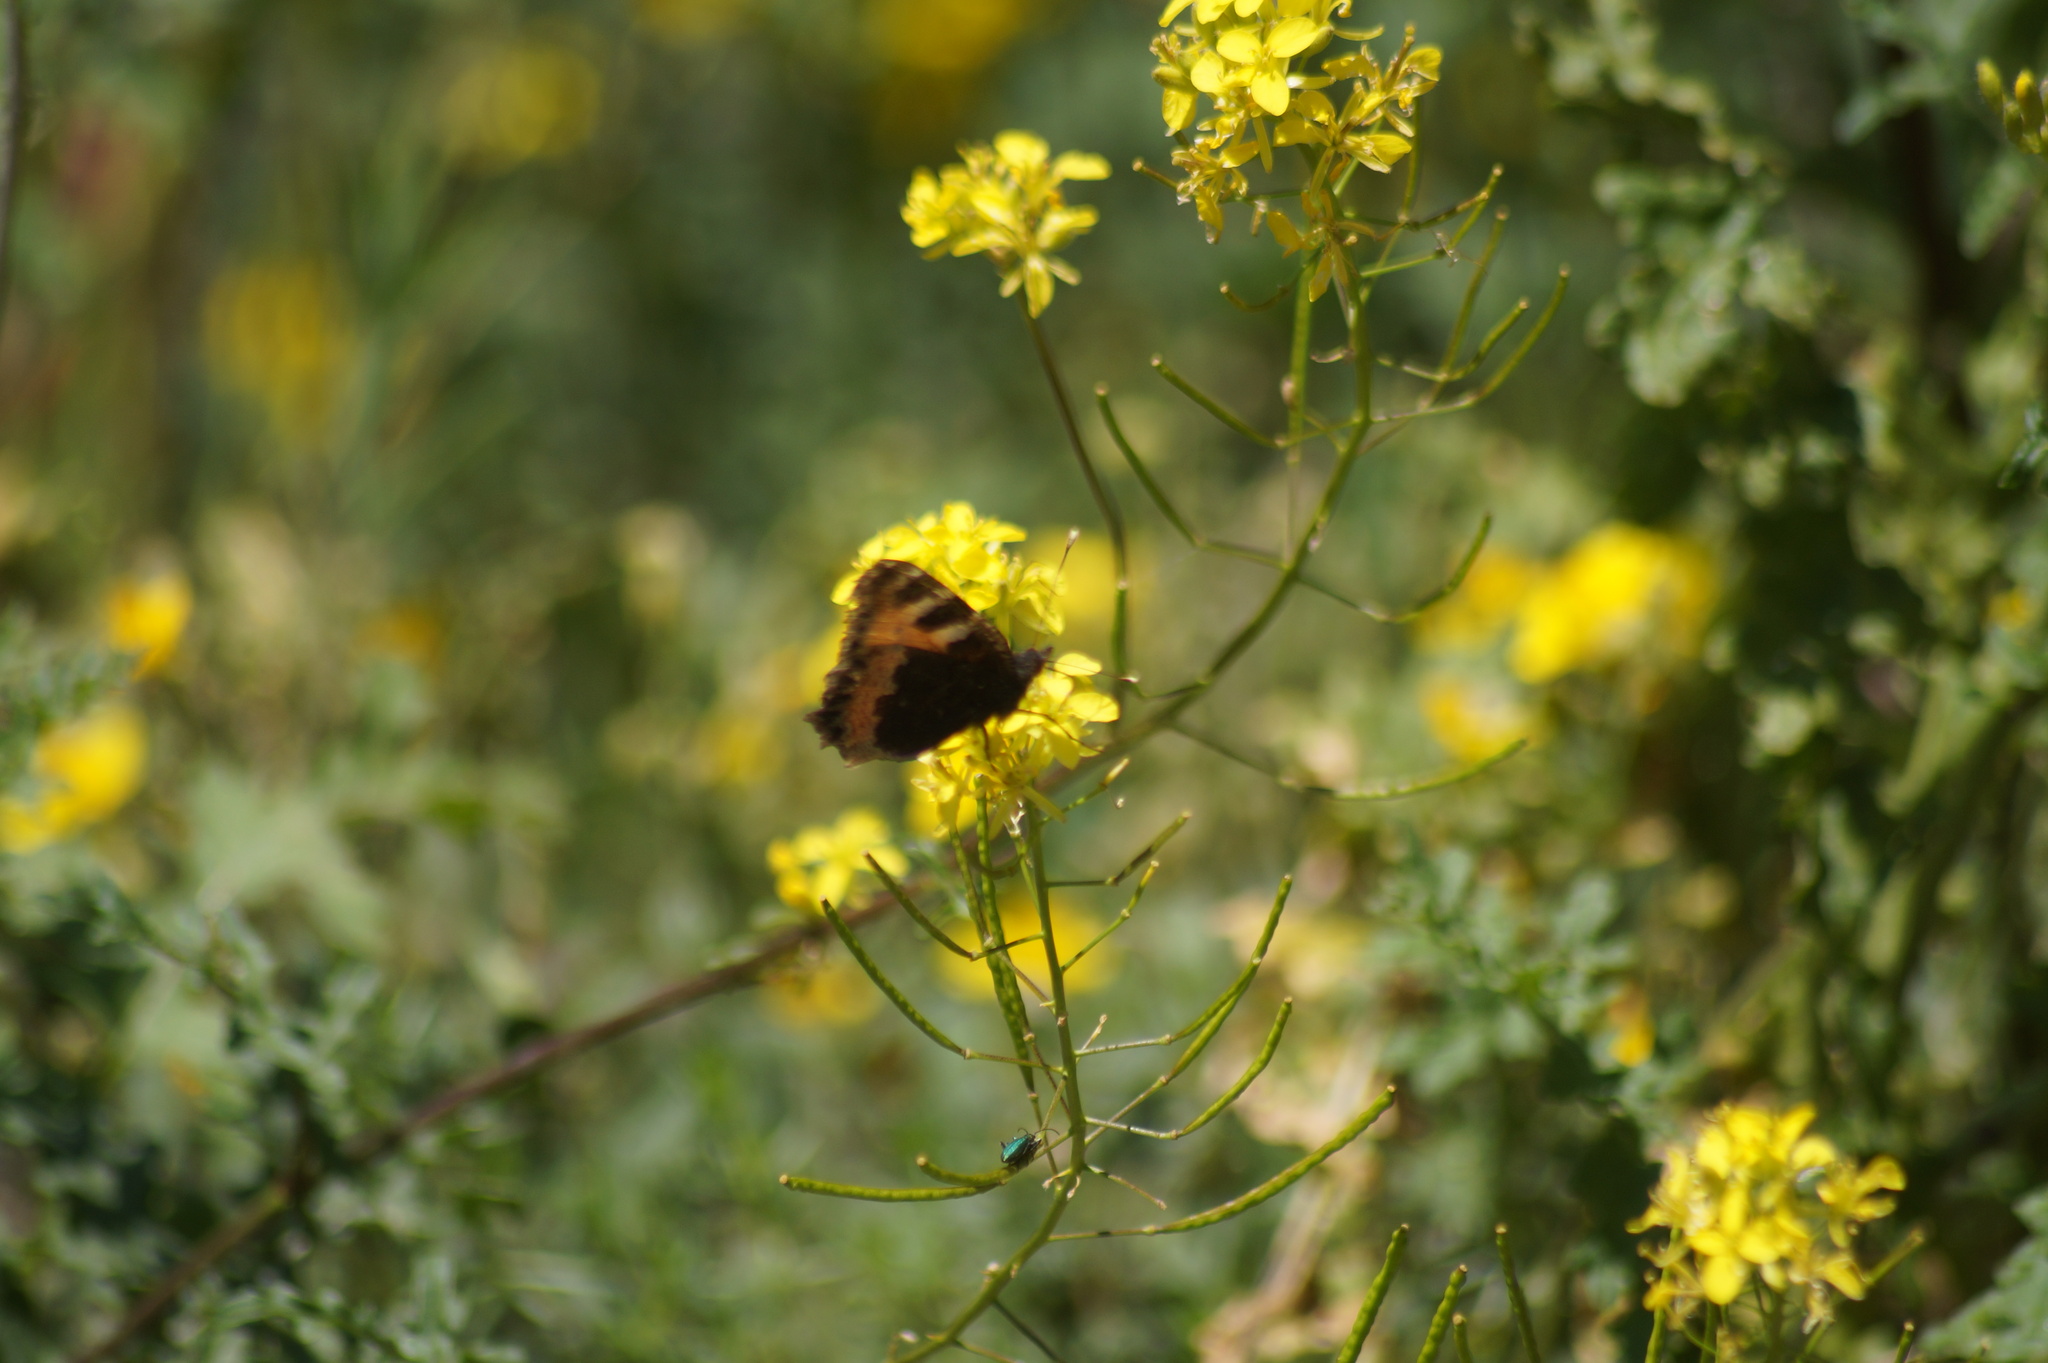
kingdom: Animalia
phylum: Arthropoda
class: Insecta
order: Lepidoptera
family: Nymphalidae
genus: Aglais
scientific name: Aglais urticae
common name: Small tortoiseshell
